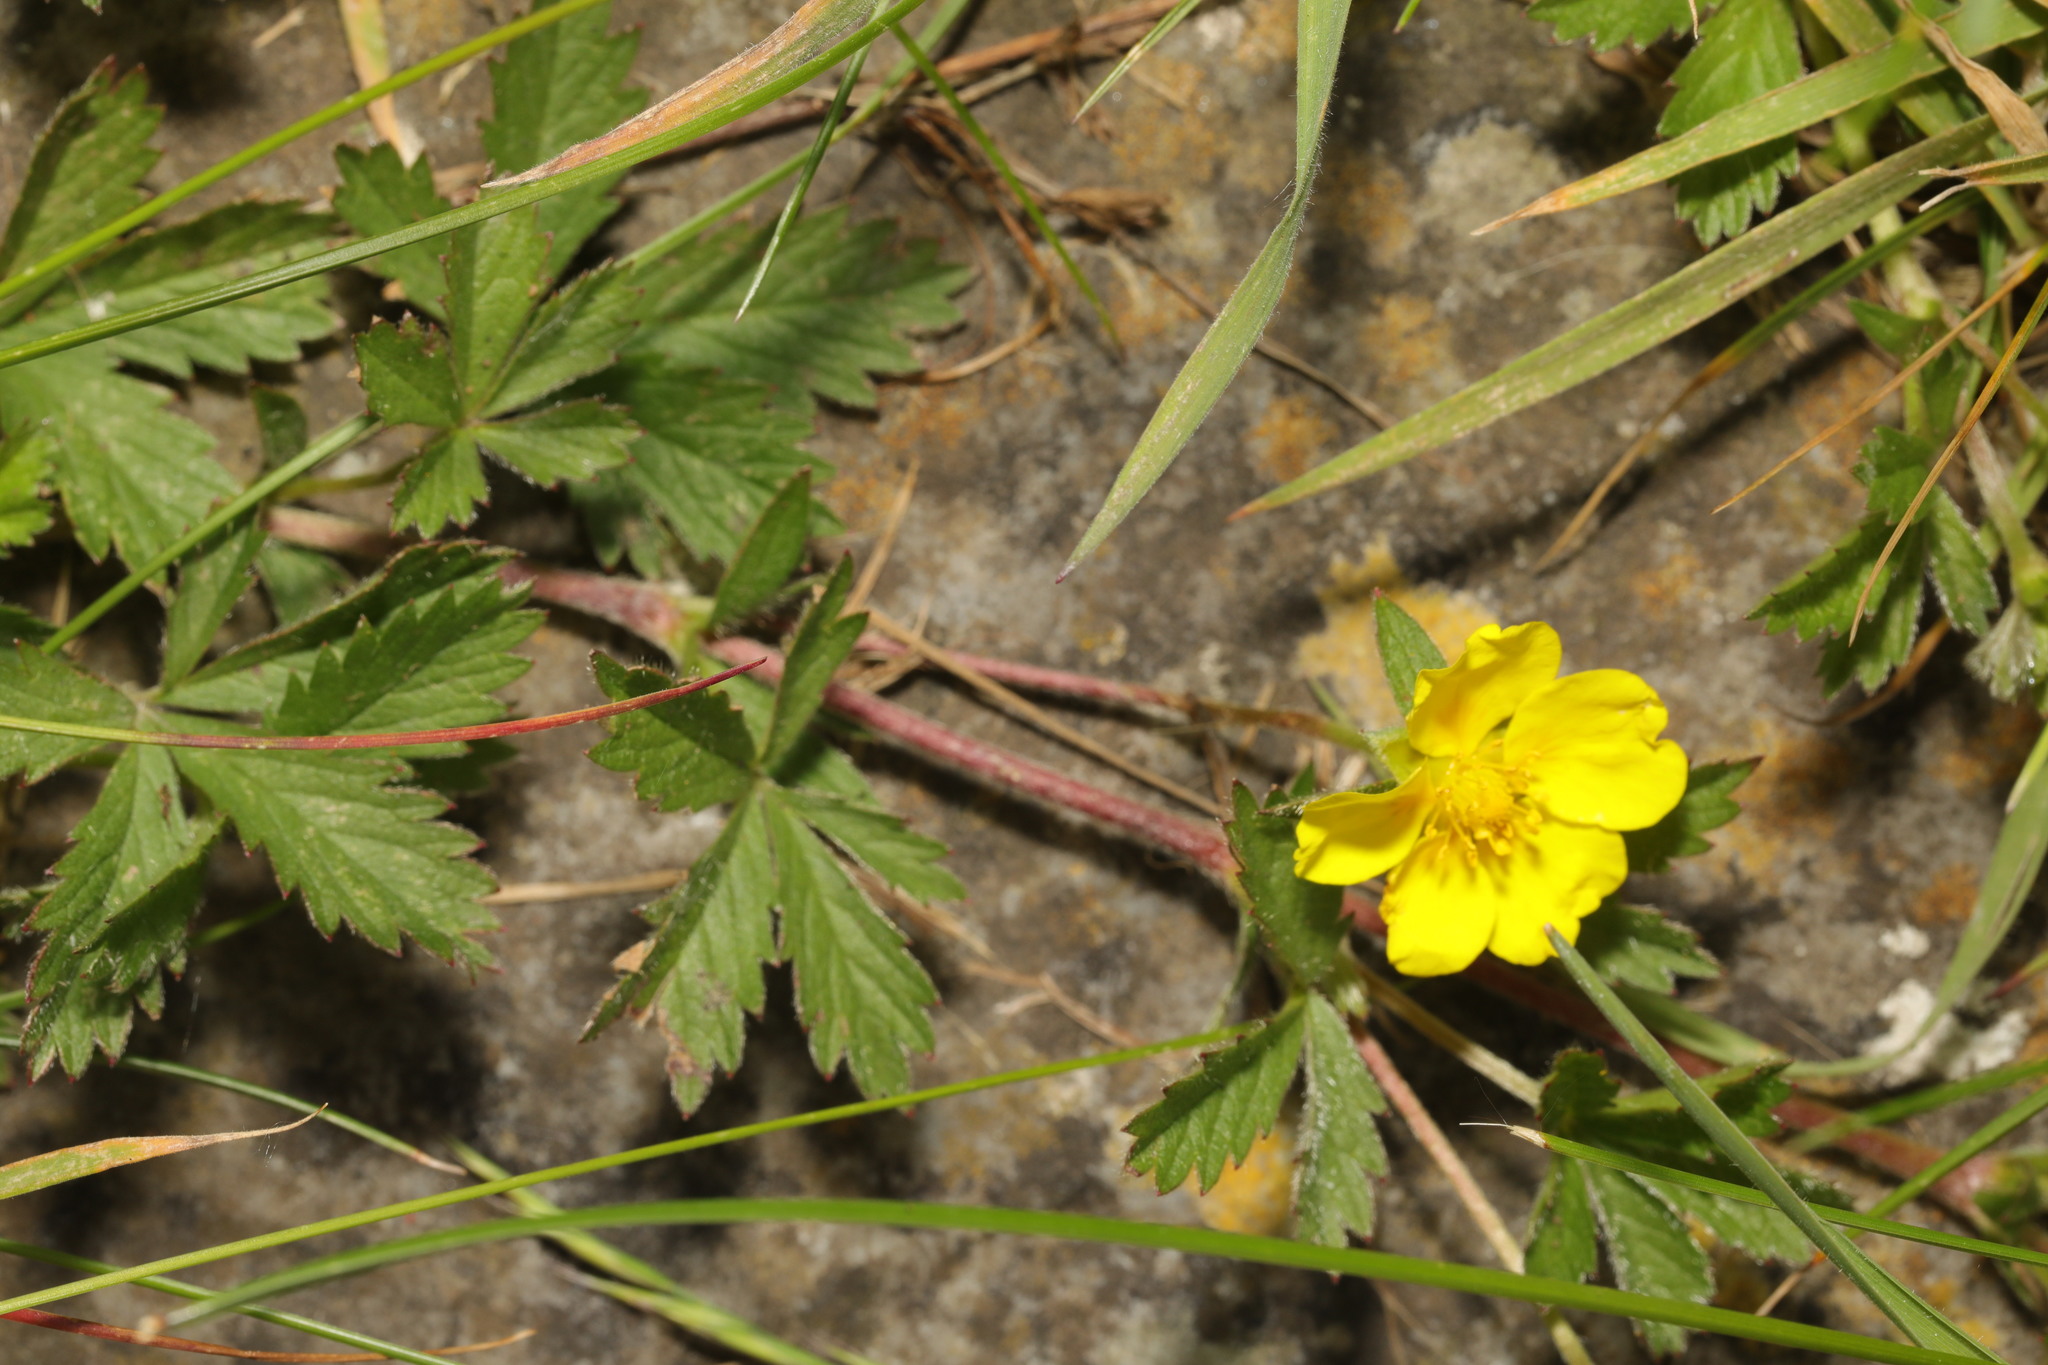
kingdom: Plantae
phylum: Tracheophyta
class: Magnoliopsida
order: Rosales
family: Rosaceae
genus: Potentilla
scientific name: Potentilla reptans
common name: Creeping cinquefoil
